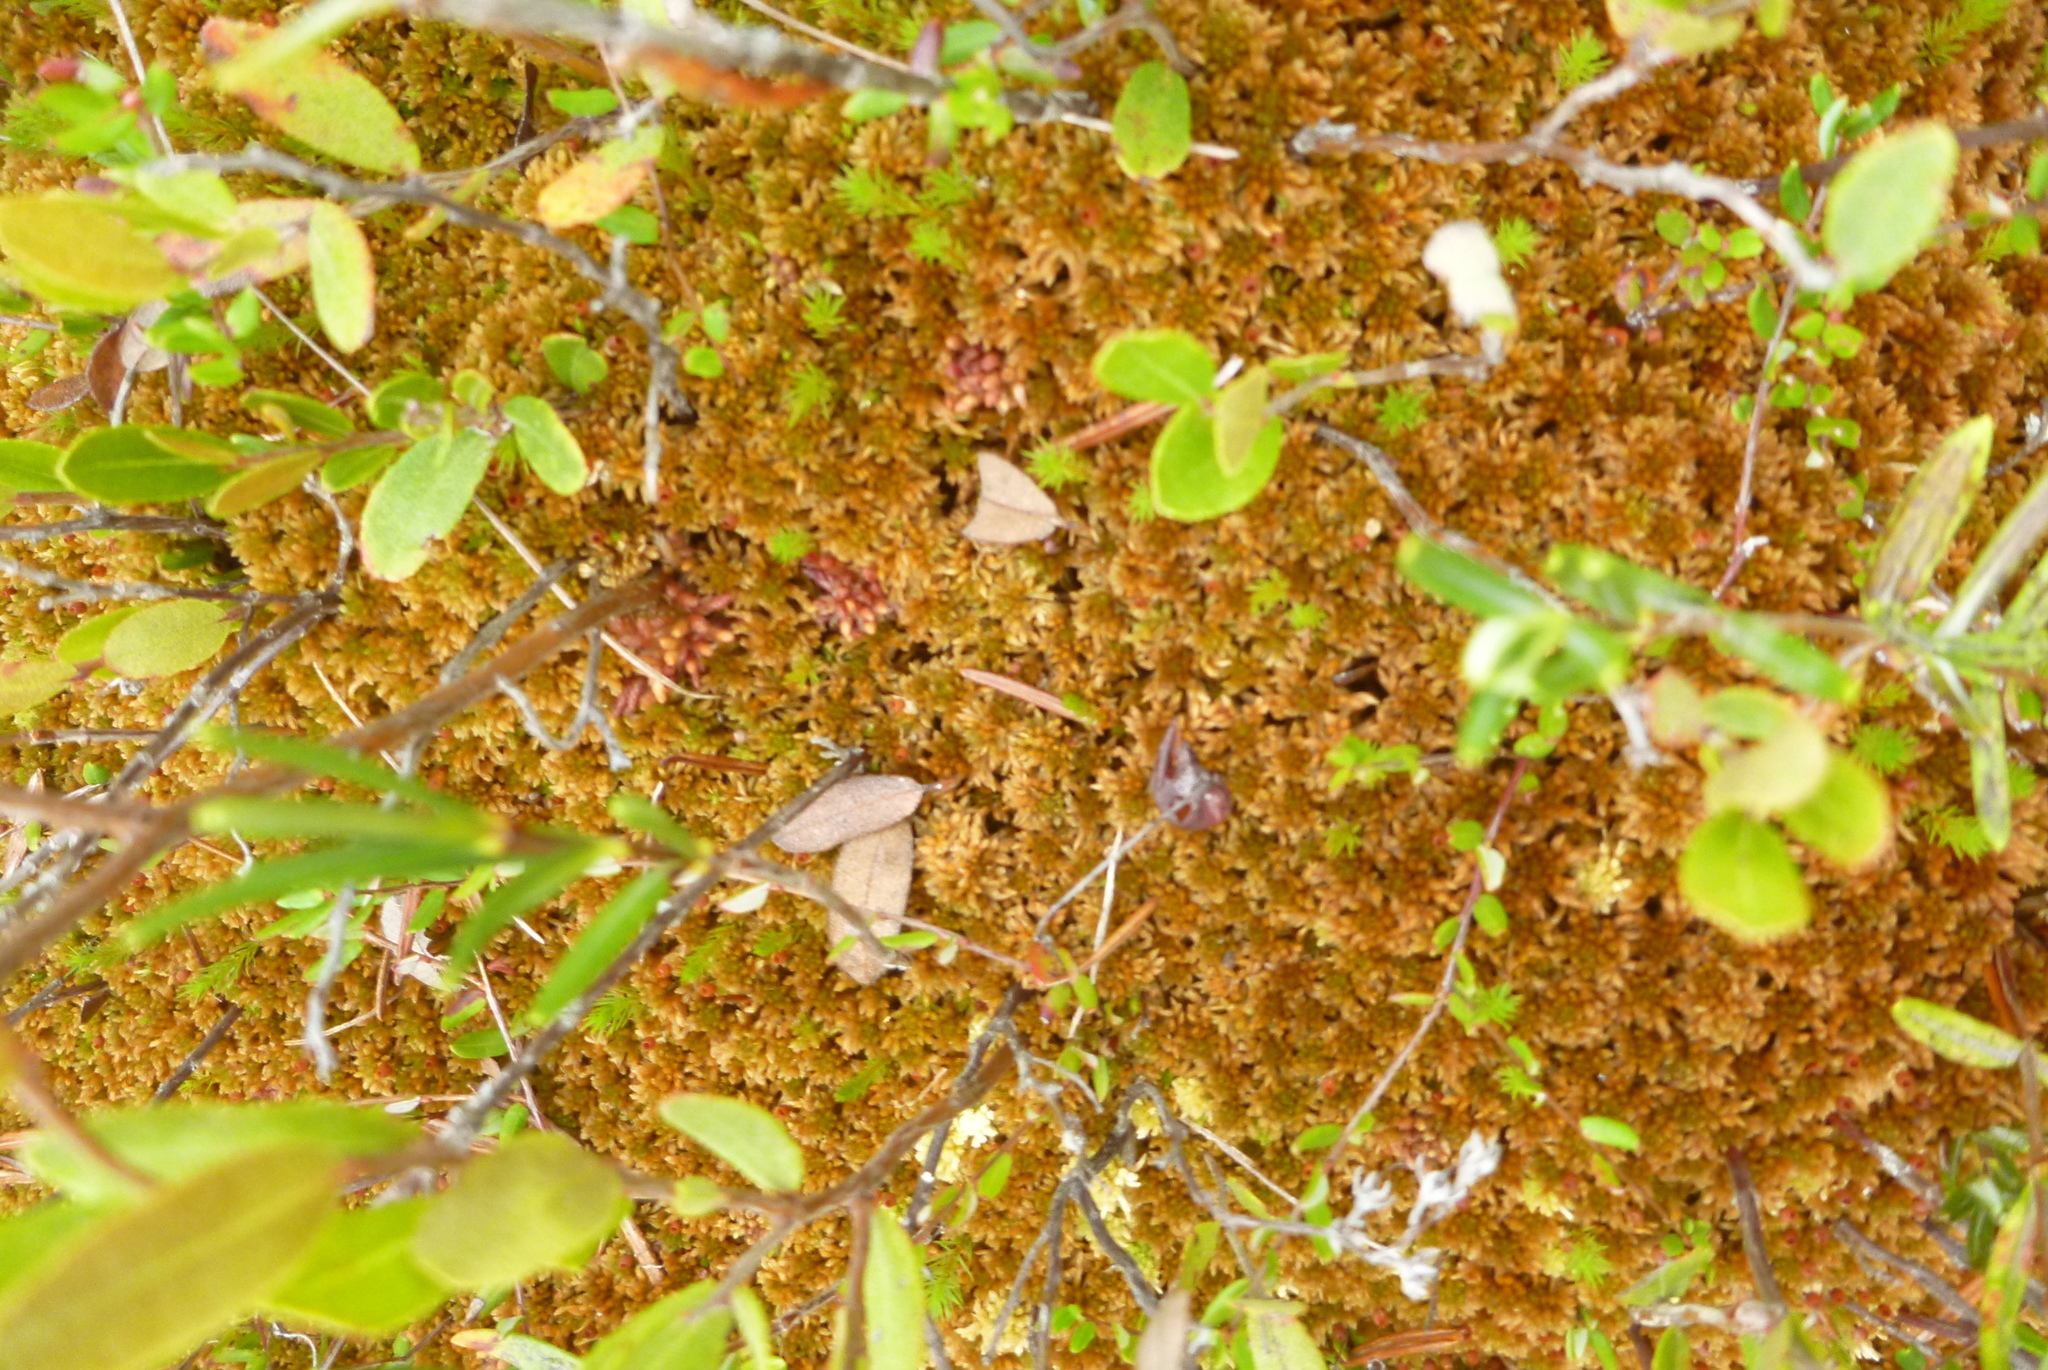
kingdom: Plantae
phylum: Bryophyta
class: Sphagnopsida
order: Sphagnales
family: Sphagnaceae
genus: Sphagnum
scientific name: Sphagnum fuscum
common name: Brown peat moss
